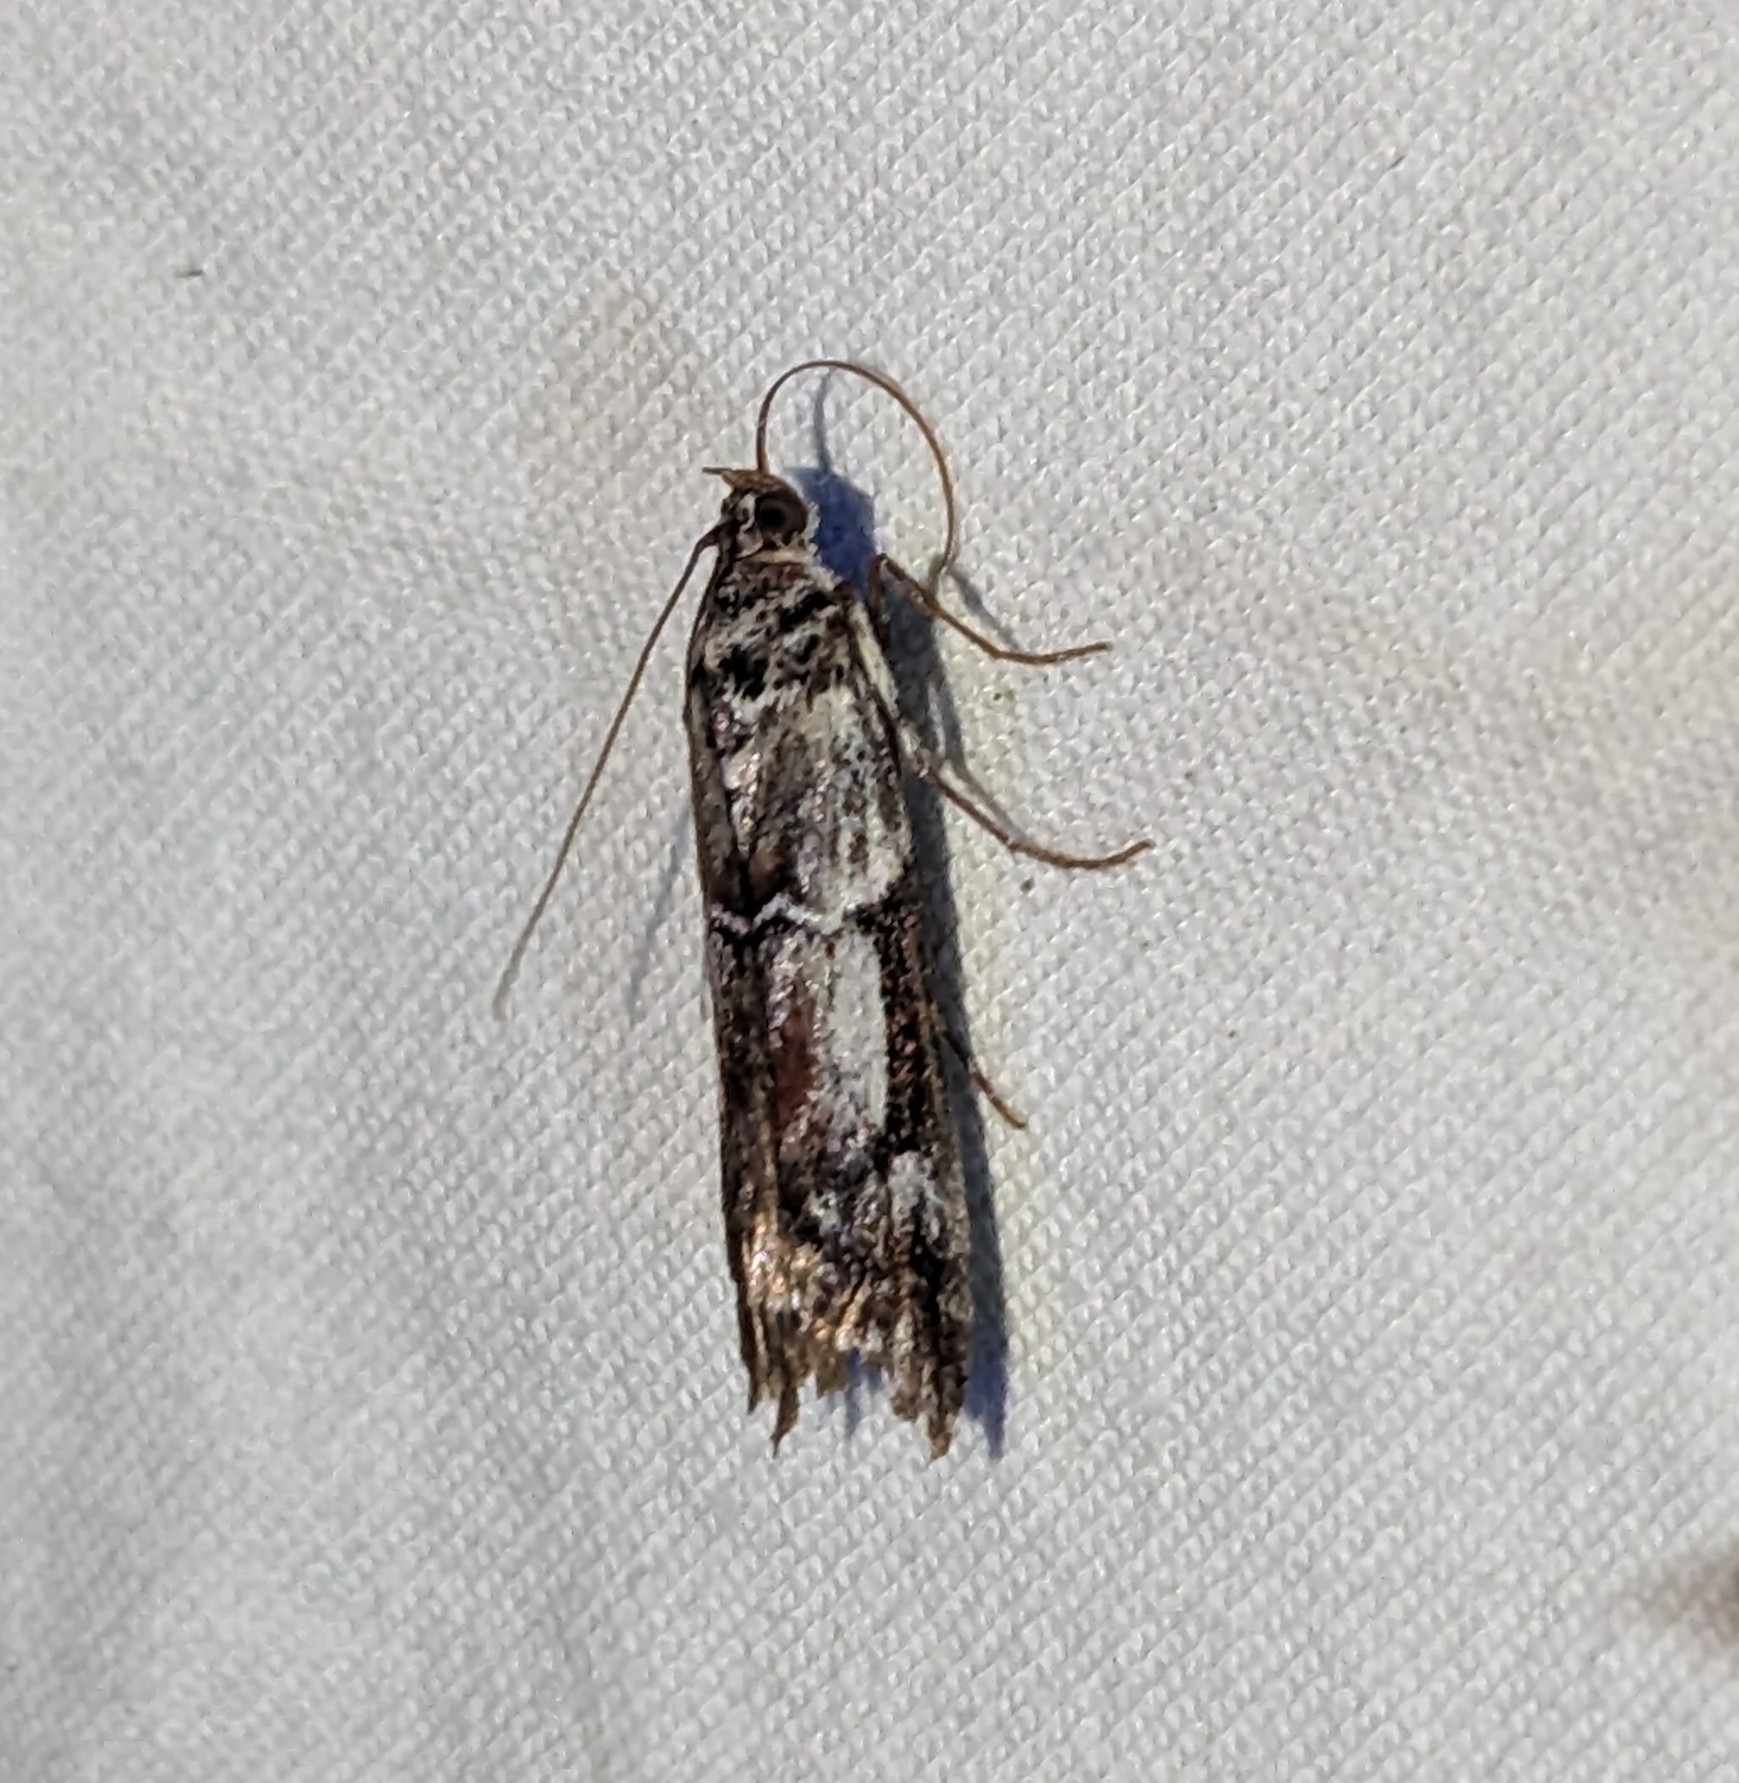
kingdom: Animalia
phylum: Arthropoda
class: Insecta
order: Lepidoptera
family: Pyralidae
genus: Ambesa
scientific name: Ambesa laetella
